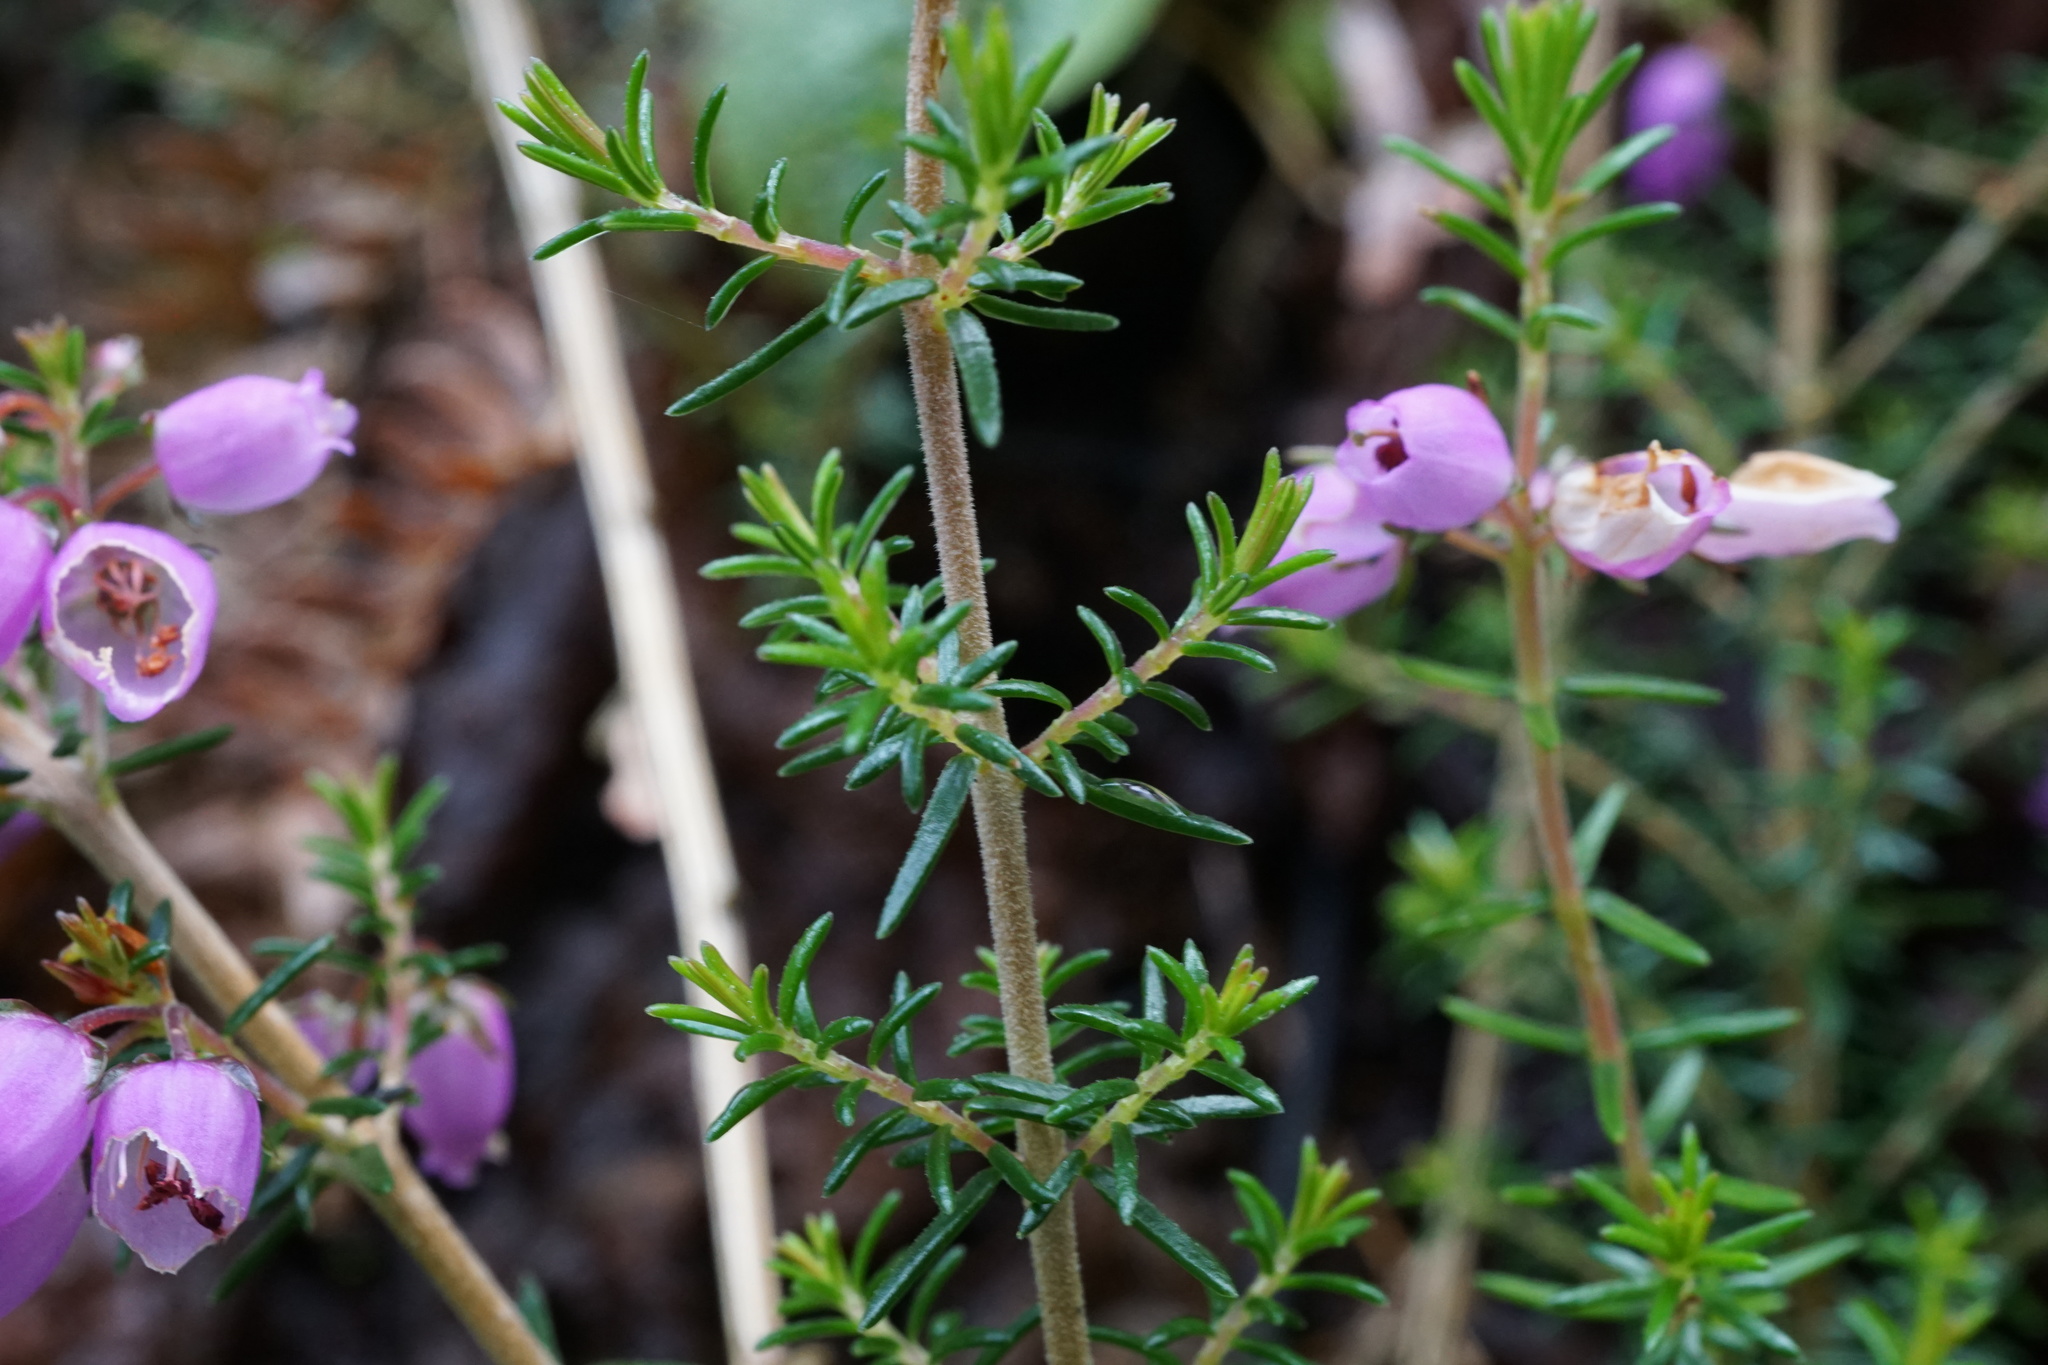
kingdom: Plantae
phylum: Tracheophyta
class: Magnoliopsida
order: Ericales
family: Ericaceae
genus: Erica
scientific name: Erica cinerea
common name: Bell heather
